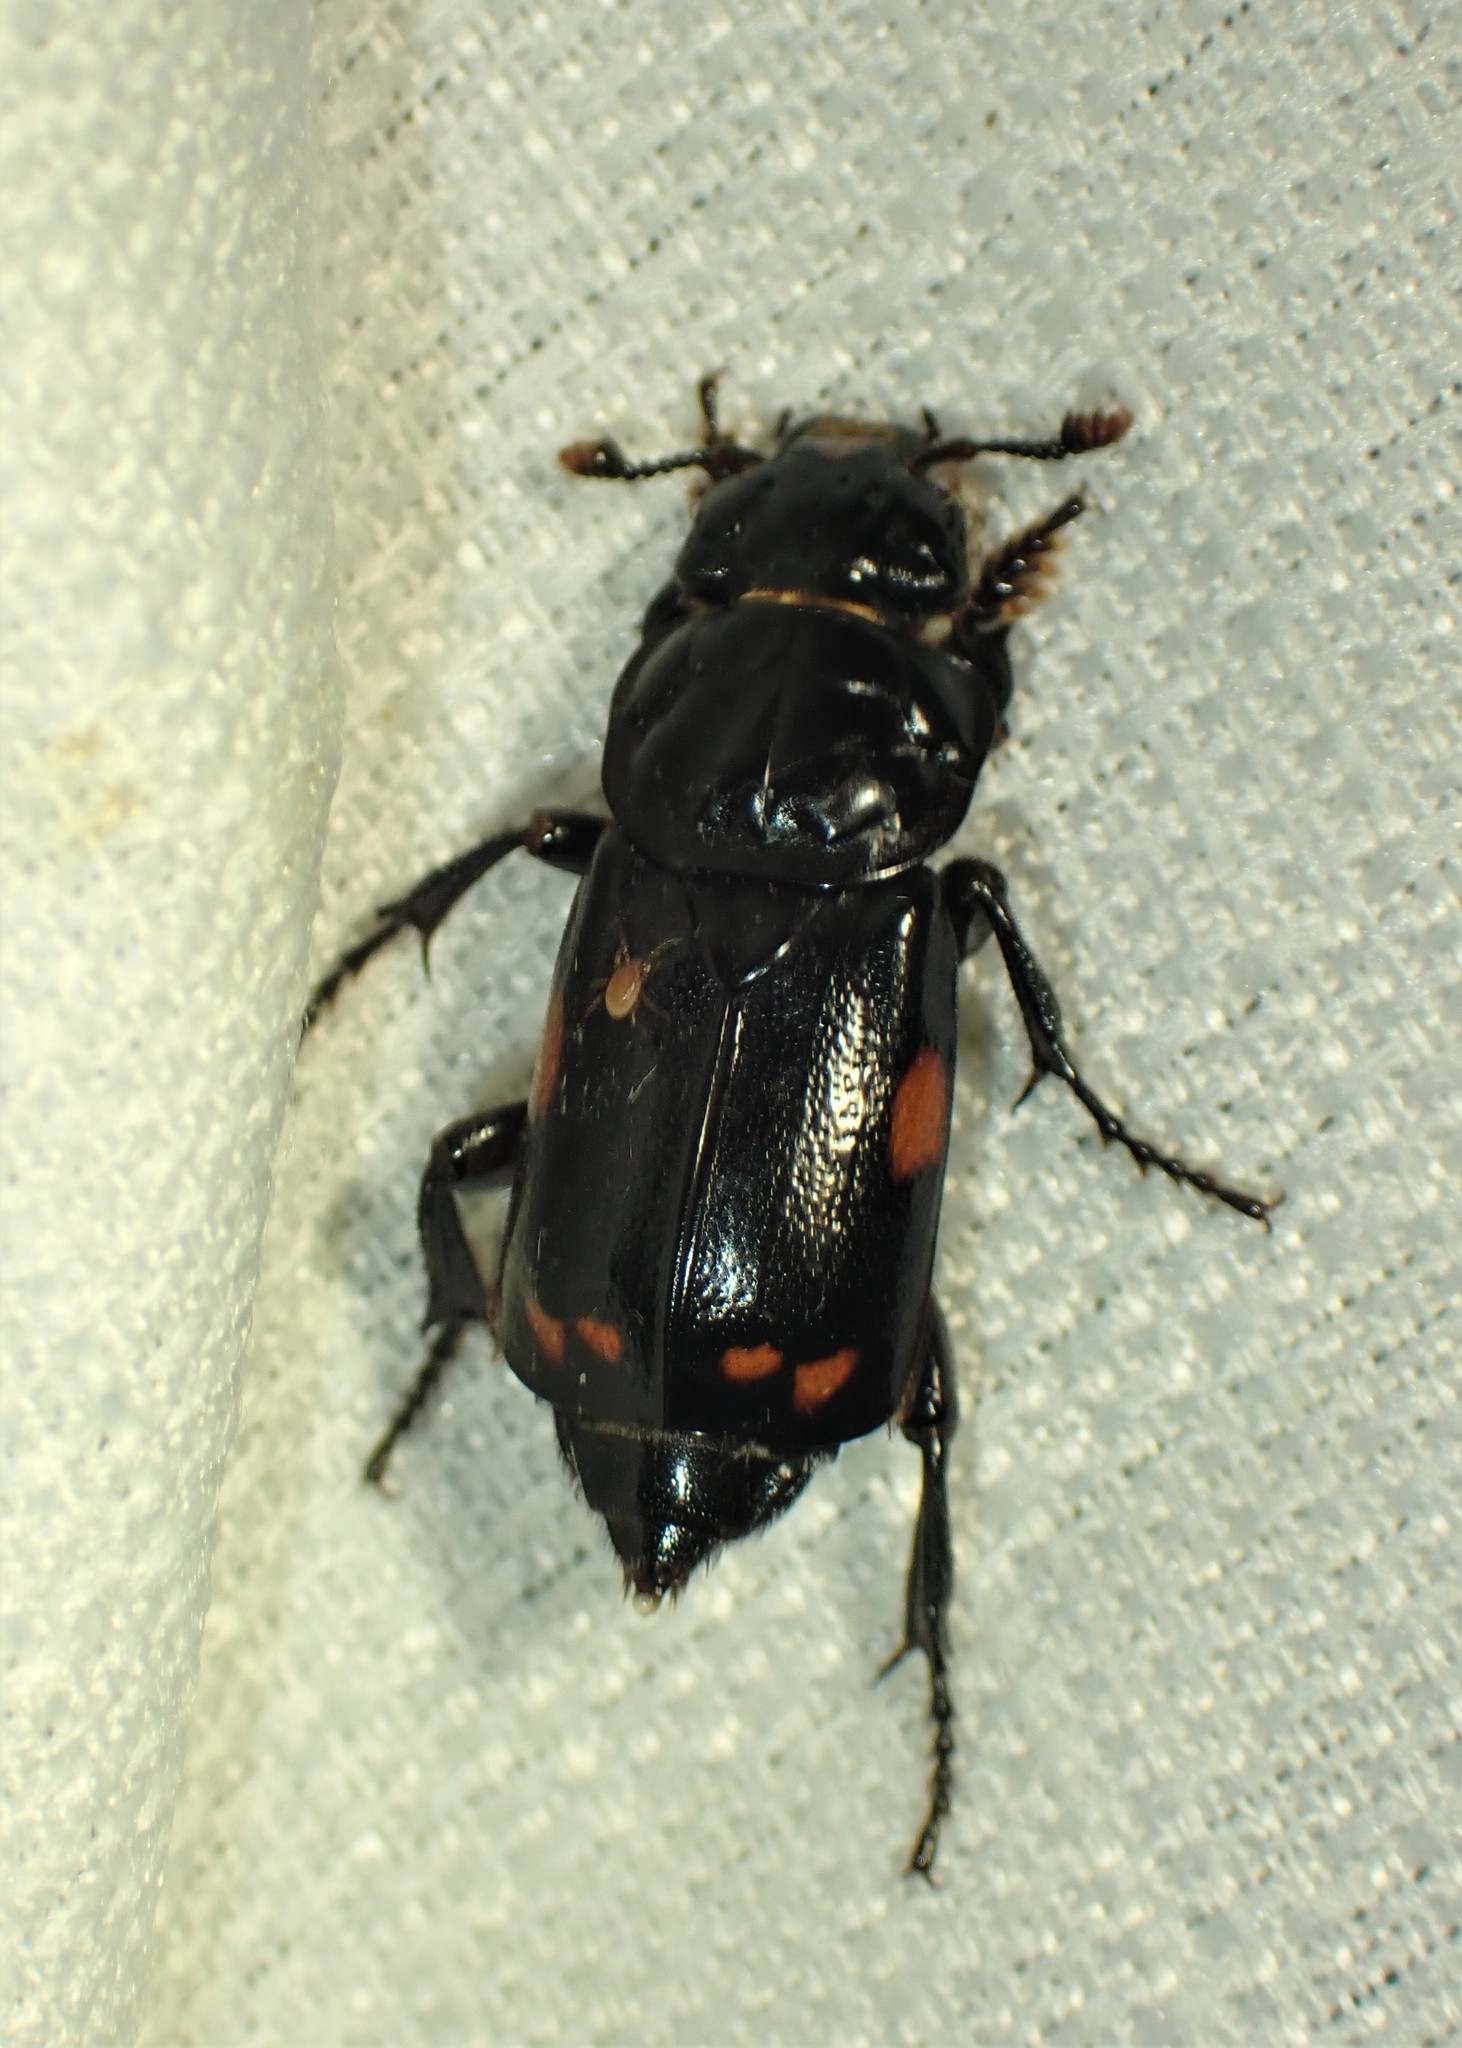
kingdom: Animalia
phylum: Arthropoda
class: Insecta
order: Coleoptera
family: Staphylinidae
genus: Nicrophorus
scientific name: Nicrophorus pustulatus
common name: Pustulated carrion beetle
